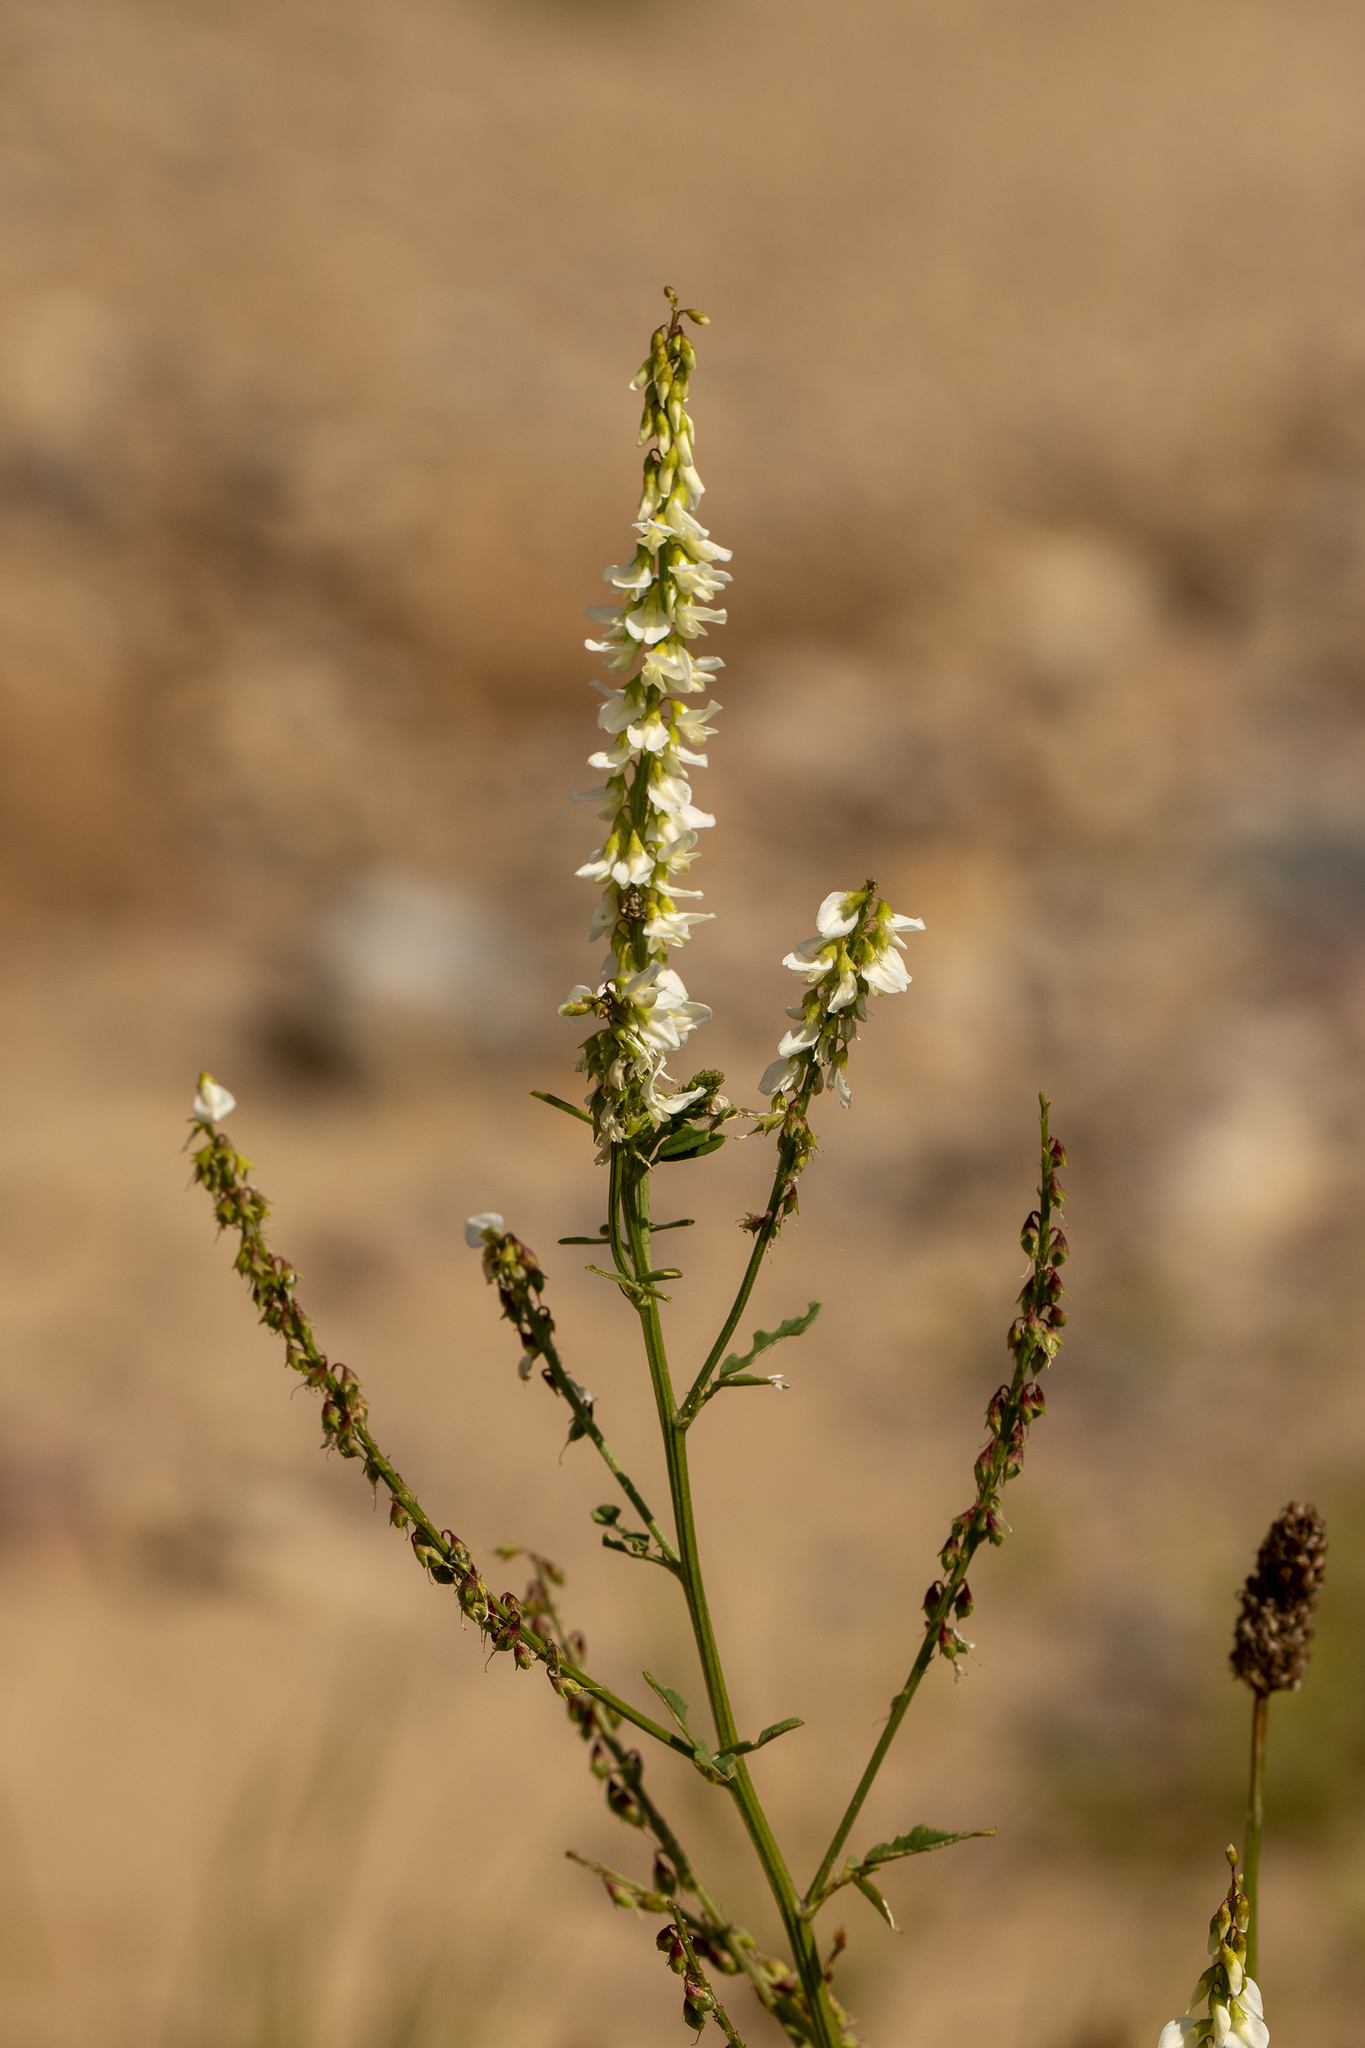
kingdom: Plantae
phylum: Tracheophyta
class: Magnoliopsida
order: Fabales
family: Fabaceae
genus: Melilotus
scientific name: Melilotus albus
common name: White melilot
